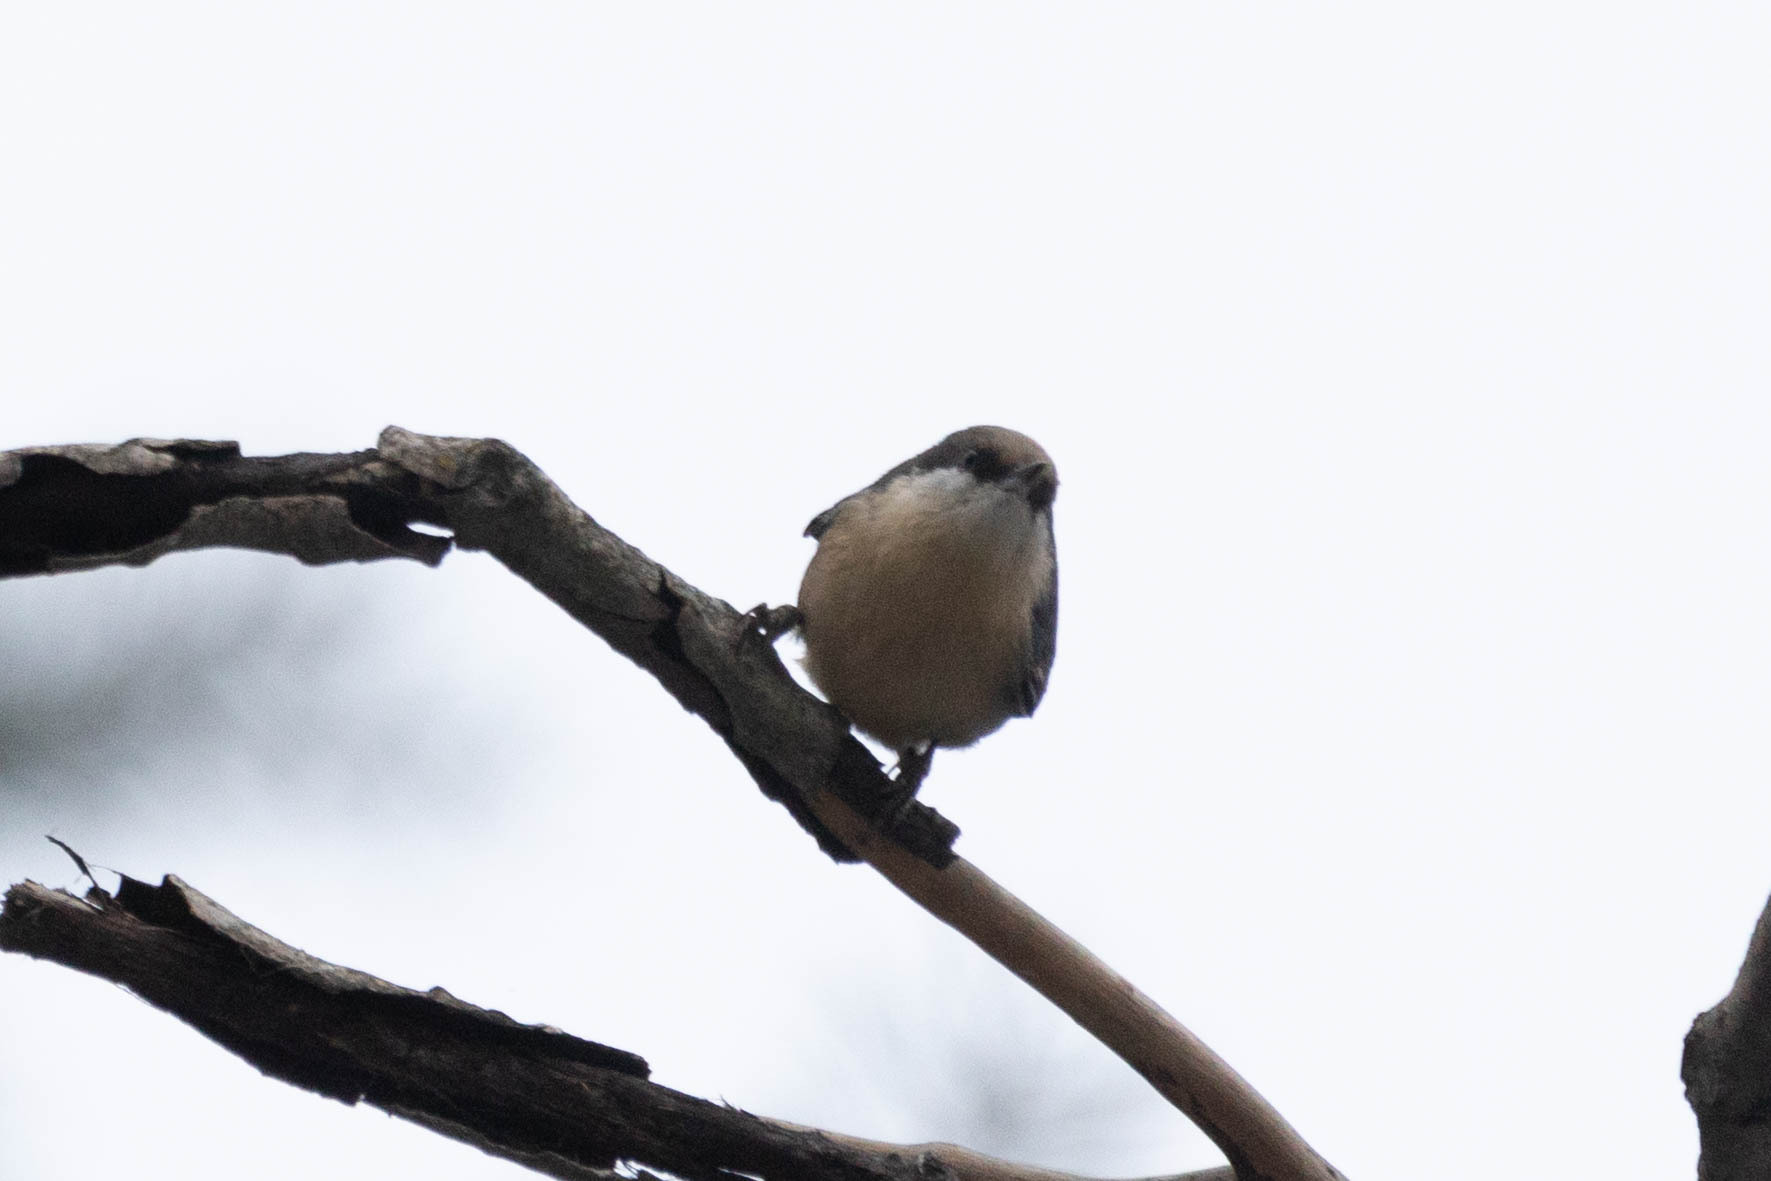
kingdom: Animalia
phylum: Chordata
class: Aves
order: Passeriformes
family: Sittidae
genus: Sitta
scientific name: Sitta pygmaea
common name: Pygmy nuthatch
